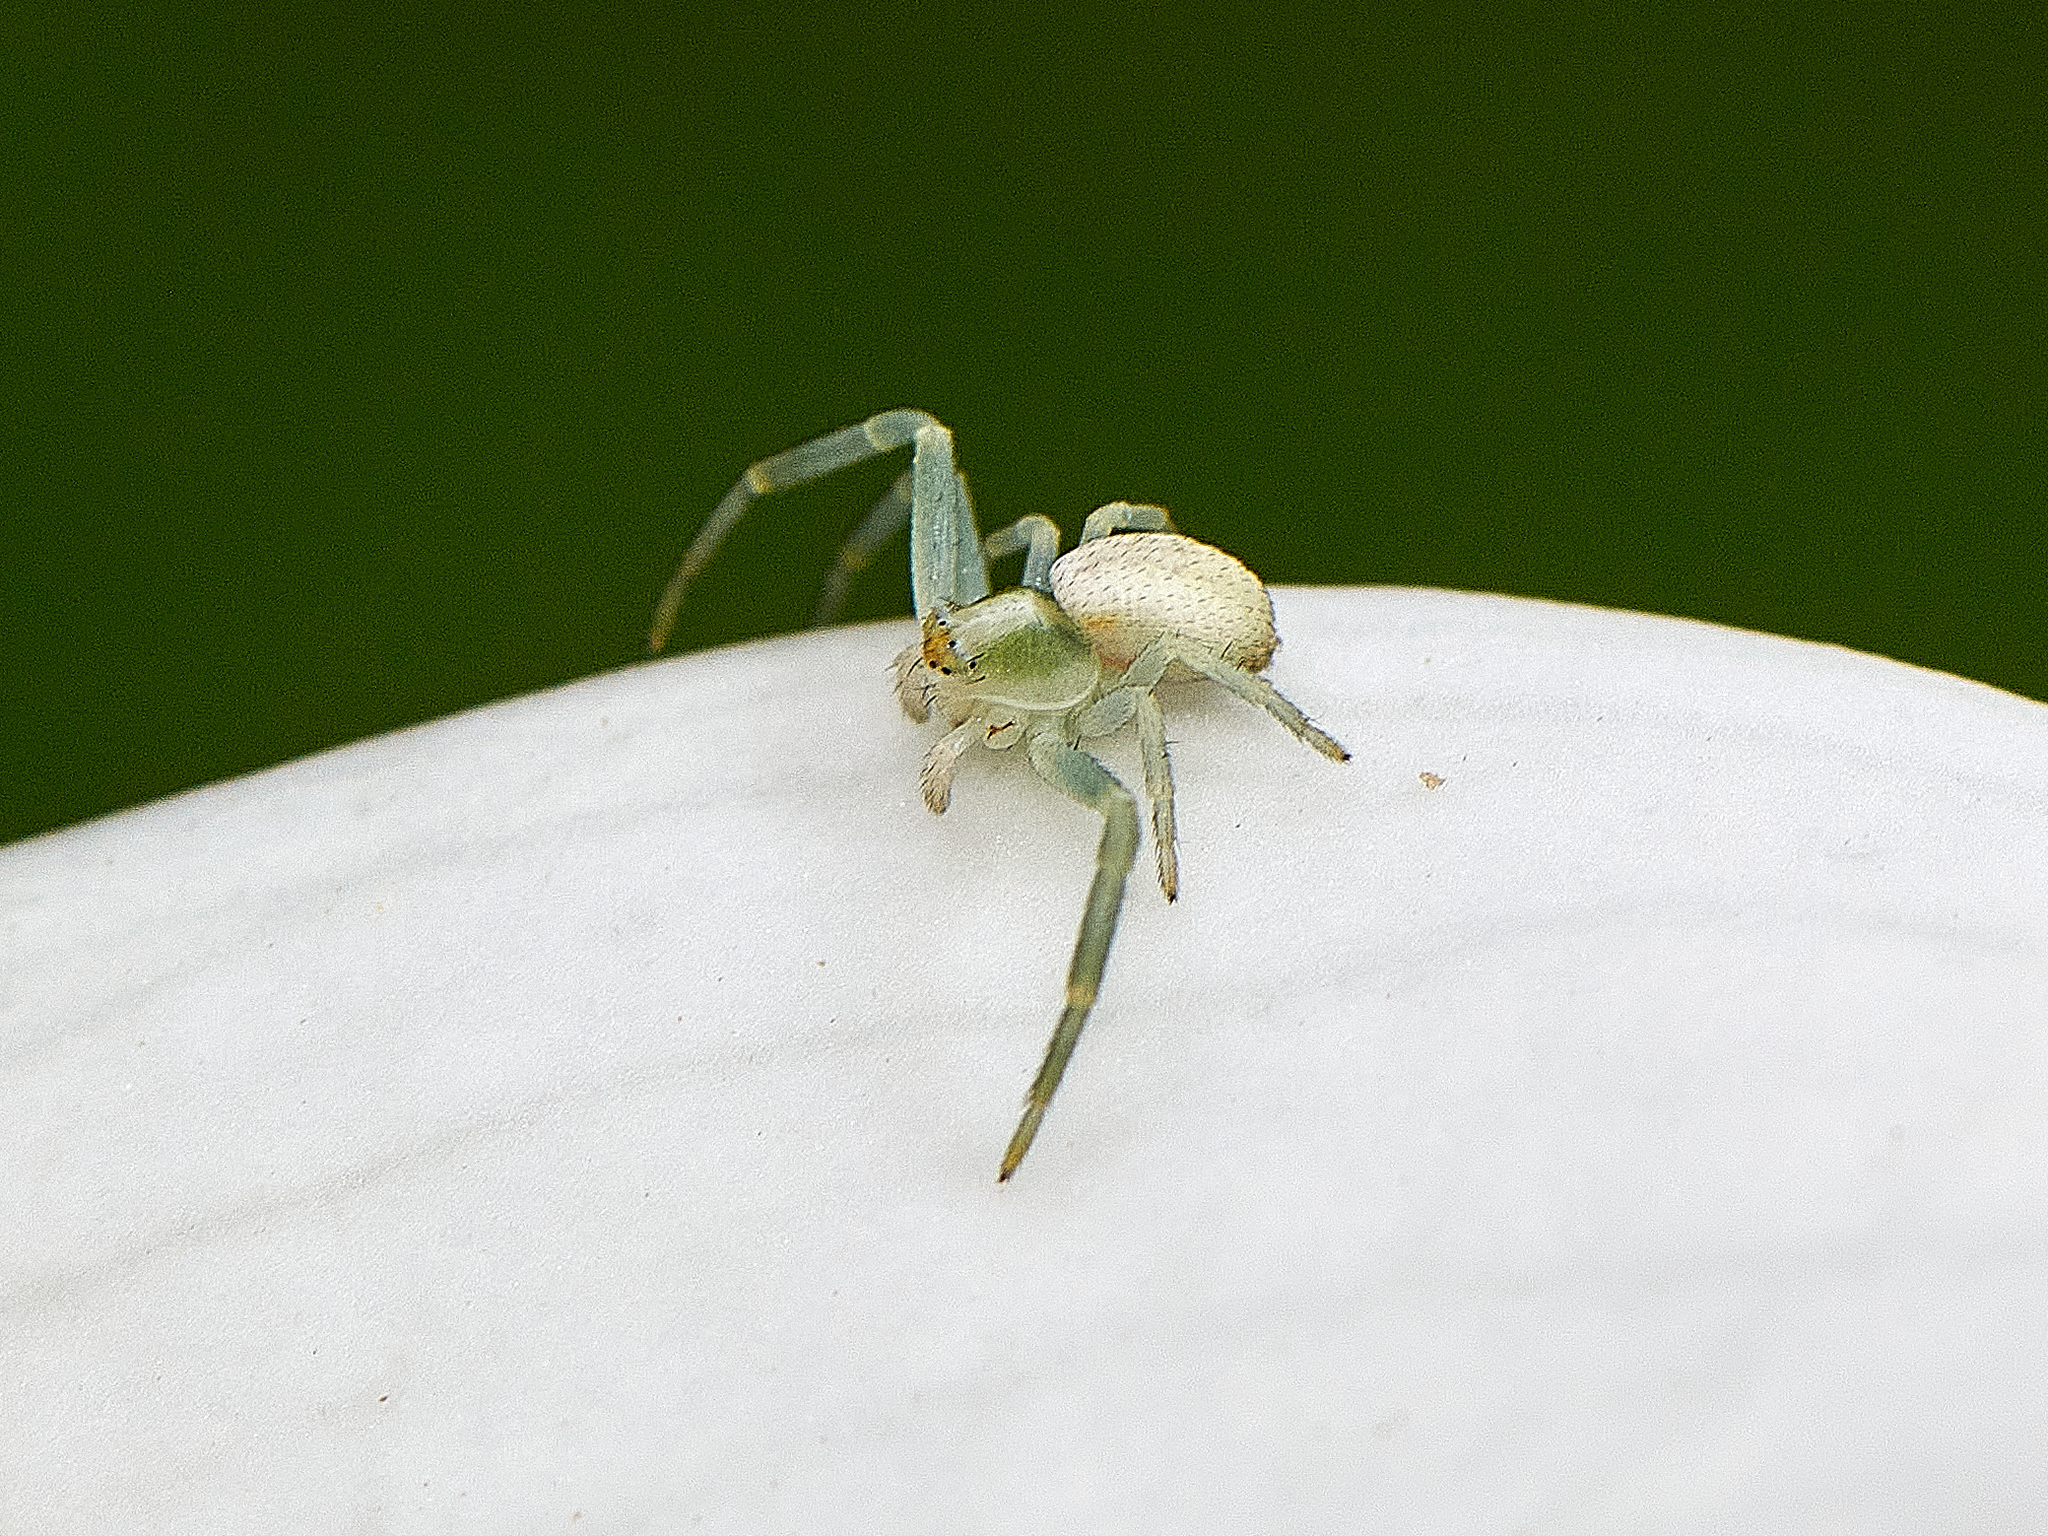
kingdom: Animalia
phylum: Arthropoda
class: Arachnida
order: Araneae
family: Thomisidae
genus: Misumena
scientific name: Misumena vatia
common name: Goldenrod crab spider
